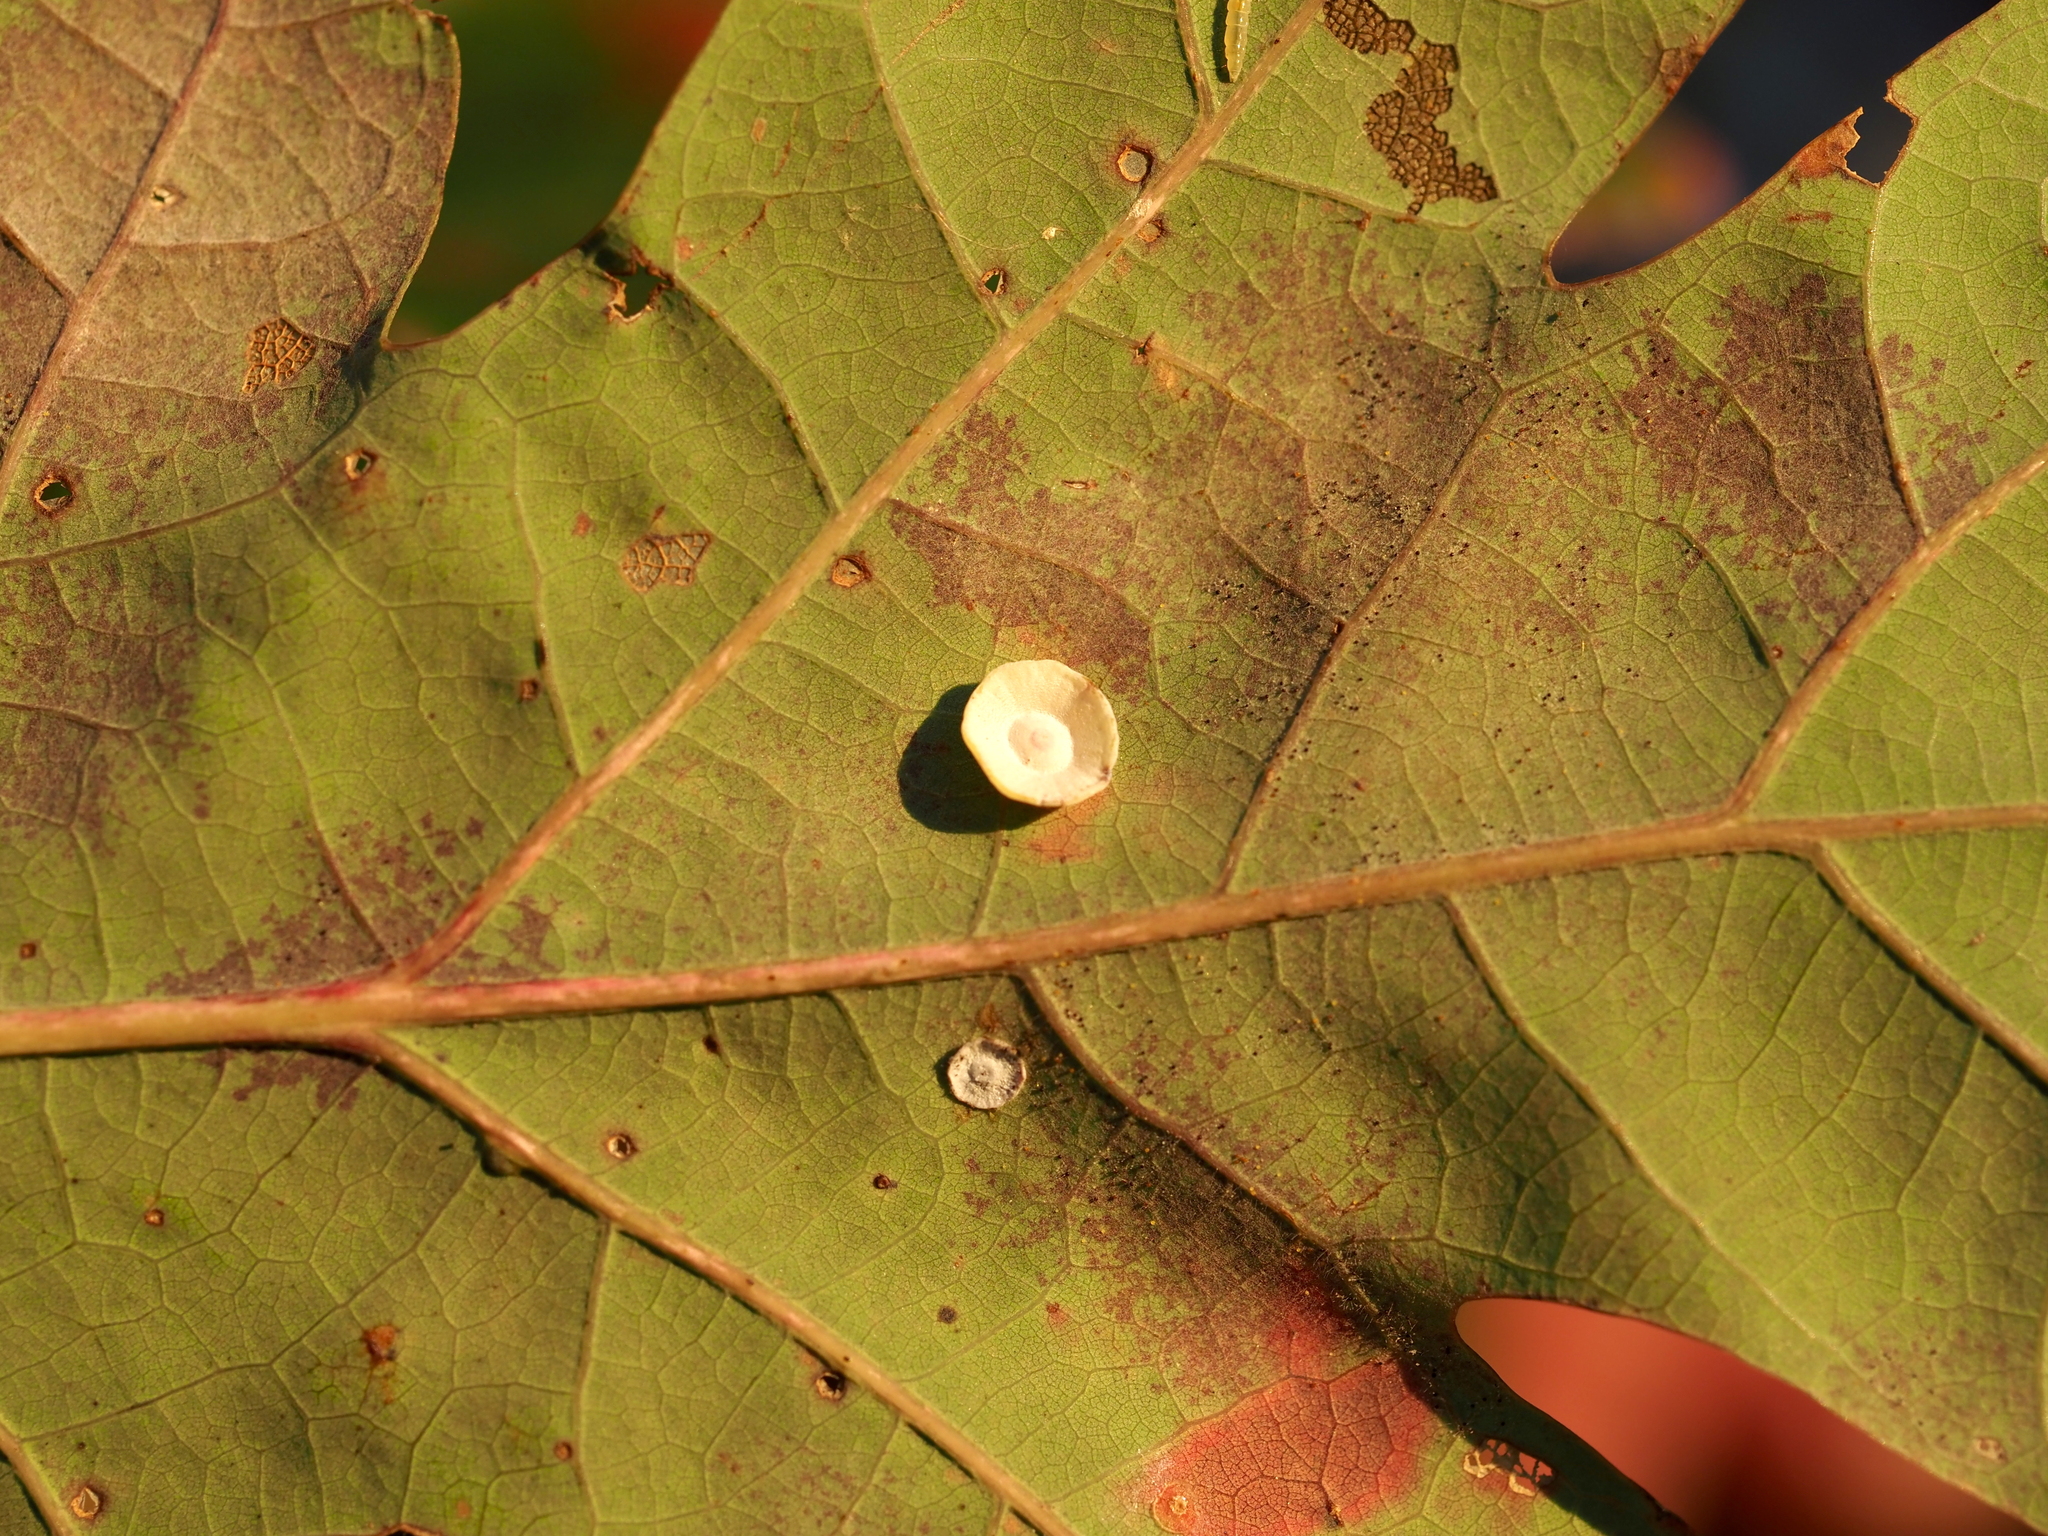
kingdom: Animalia
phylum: Arthropoda
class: Insecta
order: Hymenoptera
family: Cynipidae
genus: Phylloteras
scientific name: Phylloteras poculum
